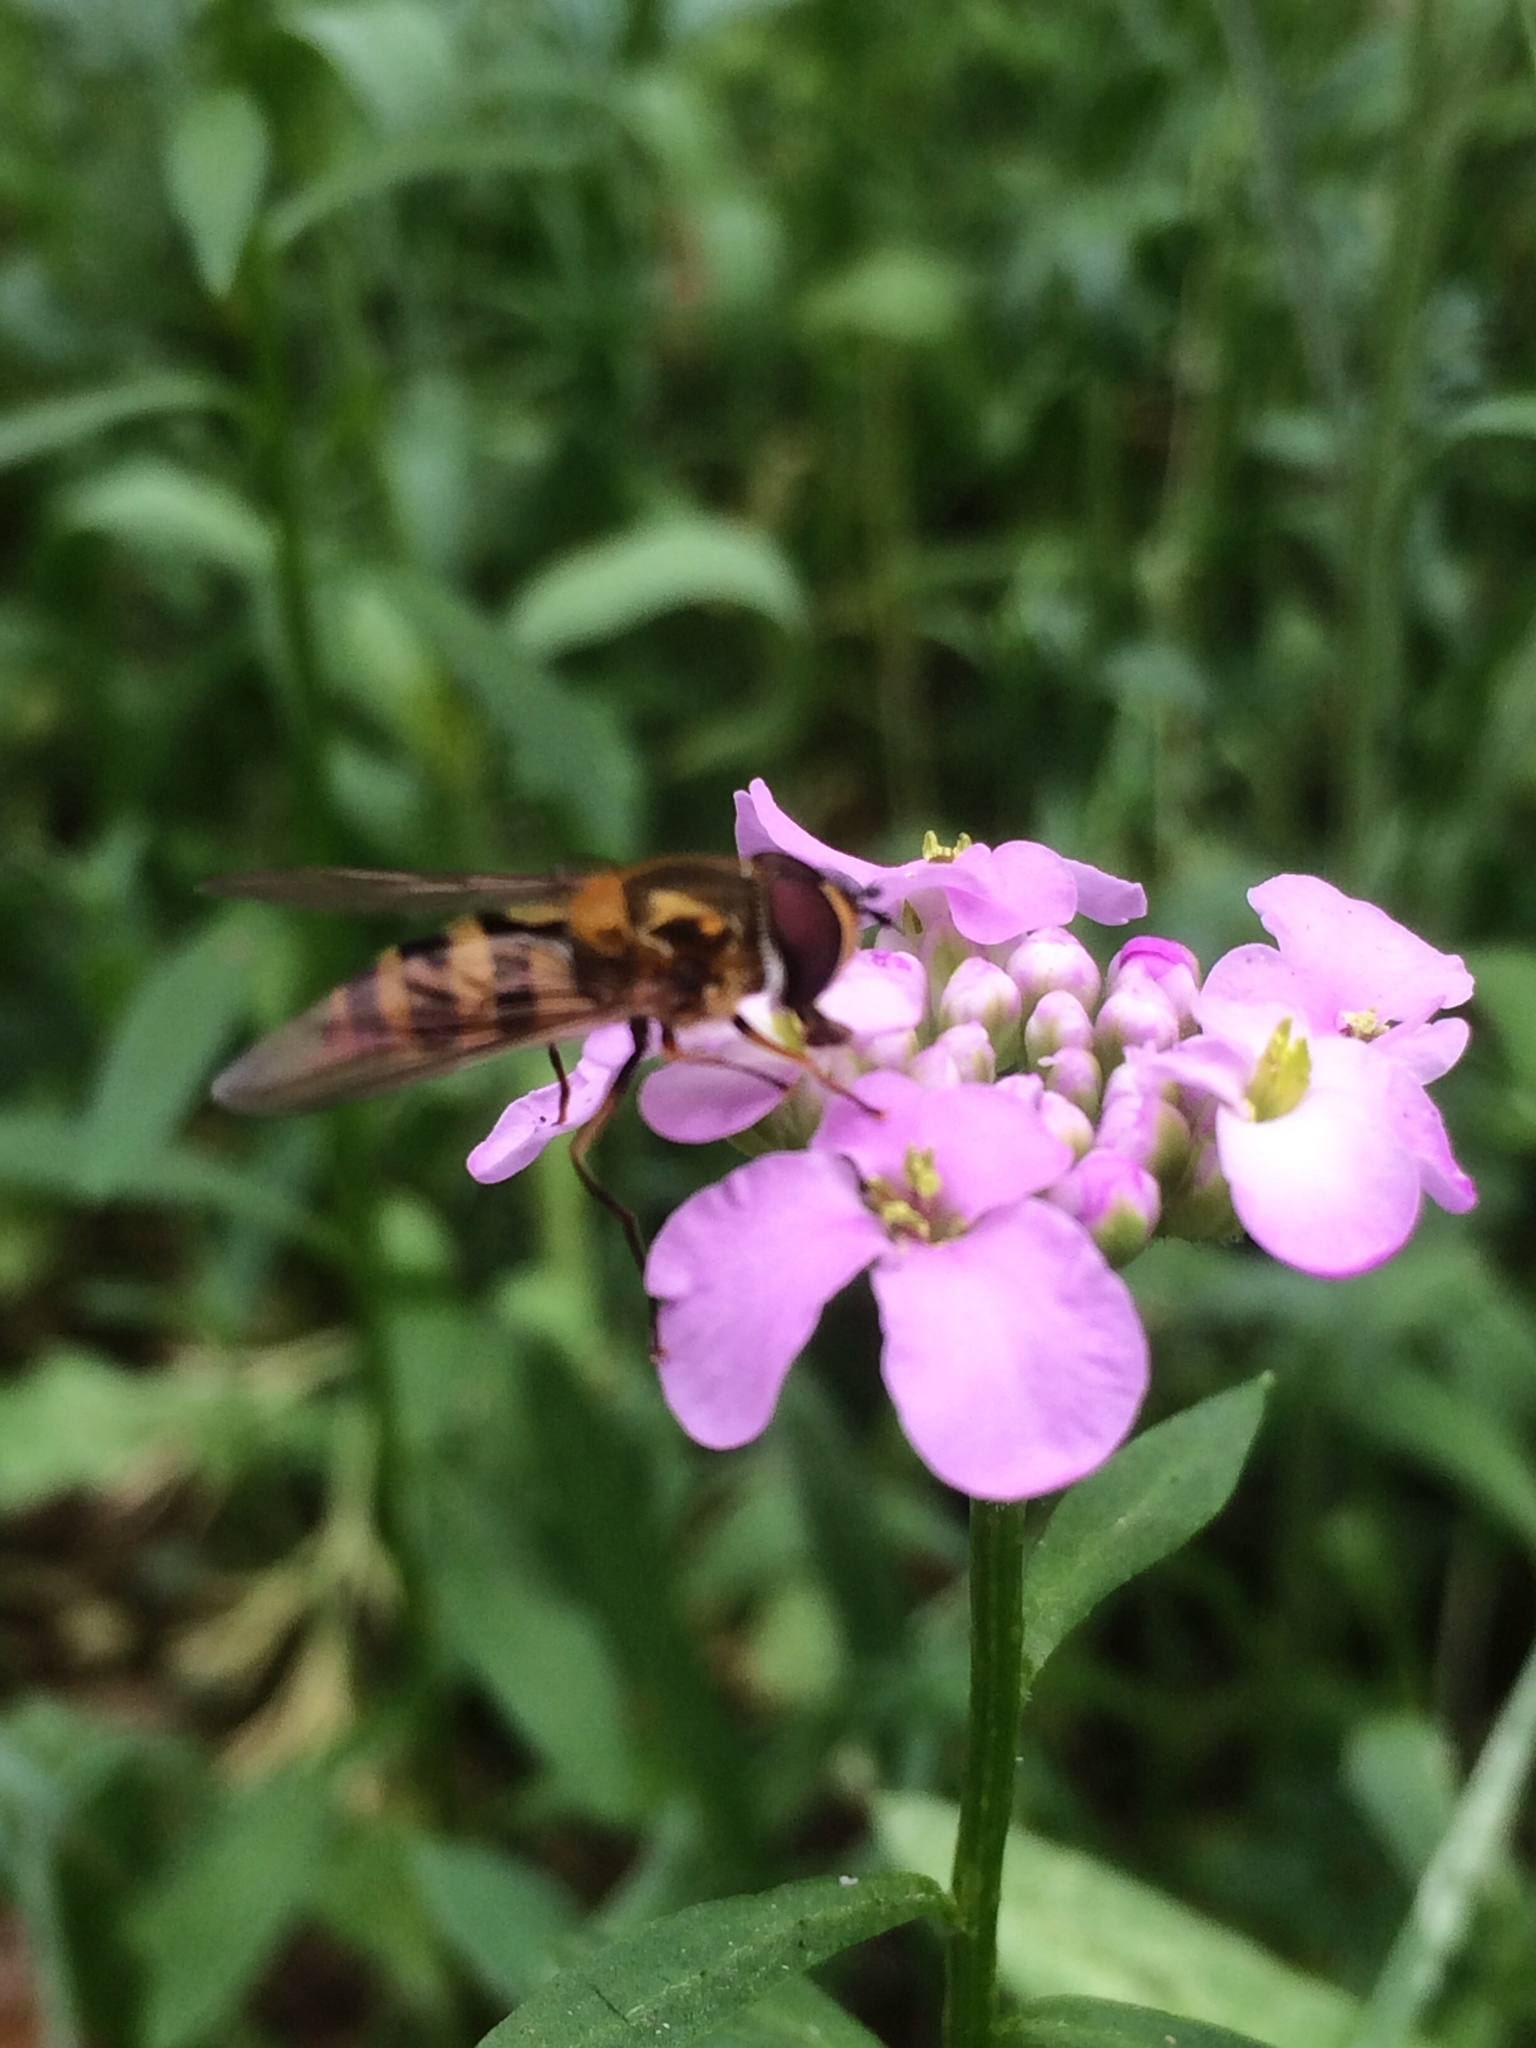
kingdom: Animalia
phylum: Arthropoda
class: Insecta
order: Diptera
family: Syrphidae
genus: Epistrophe
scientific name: Epistrophe grossulariae
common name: Black-horned smoothtail
